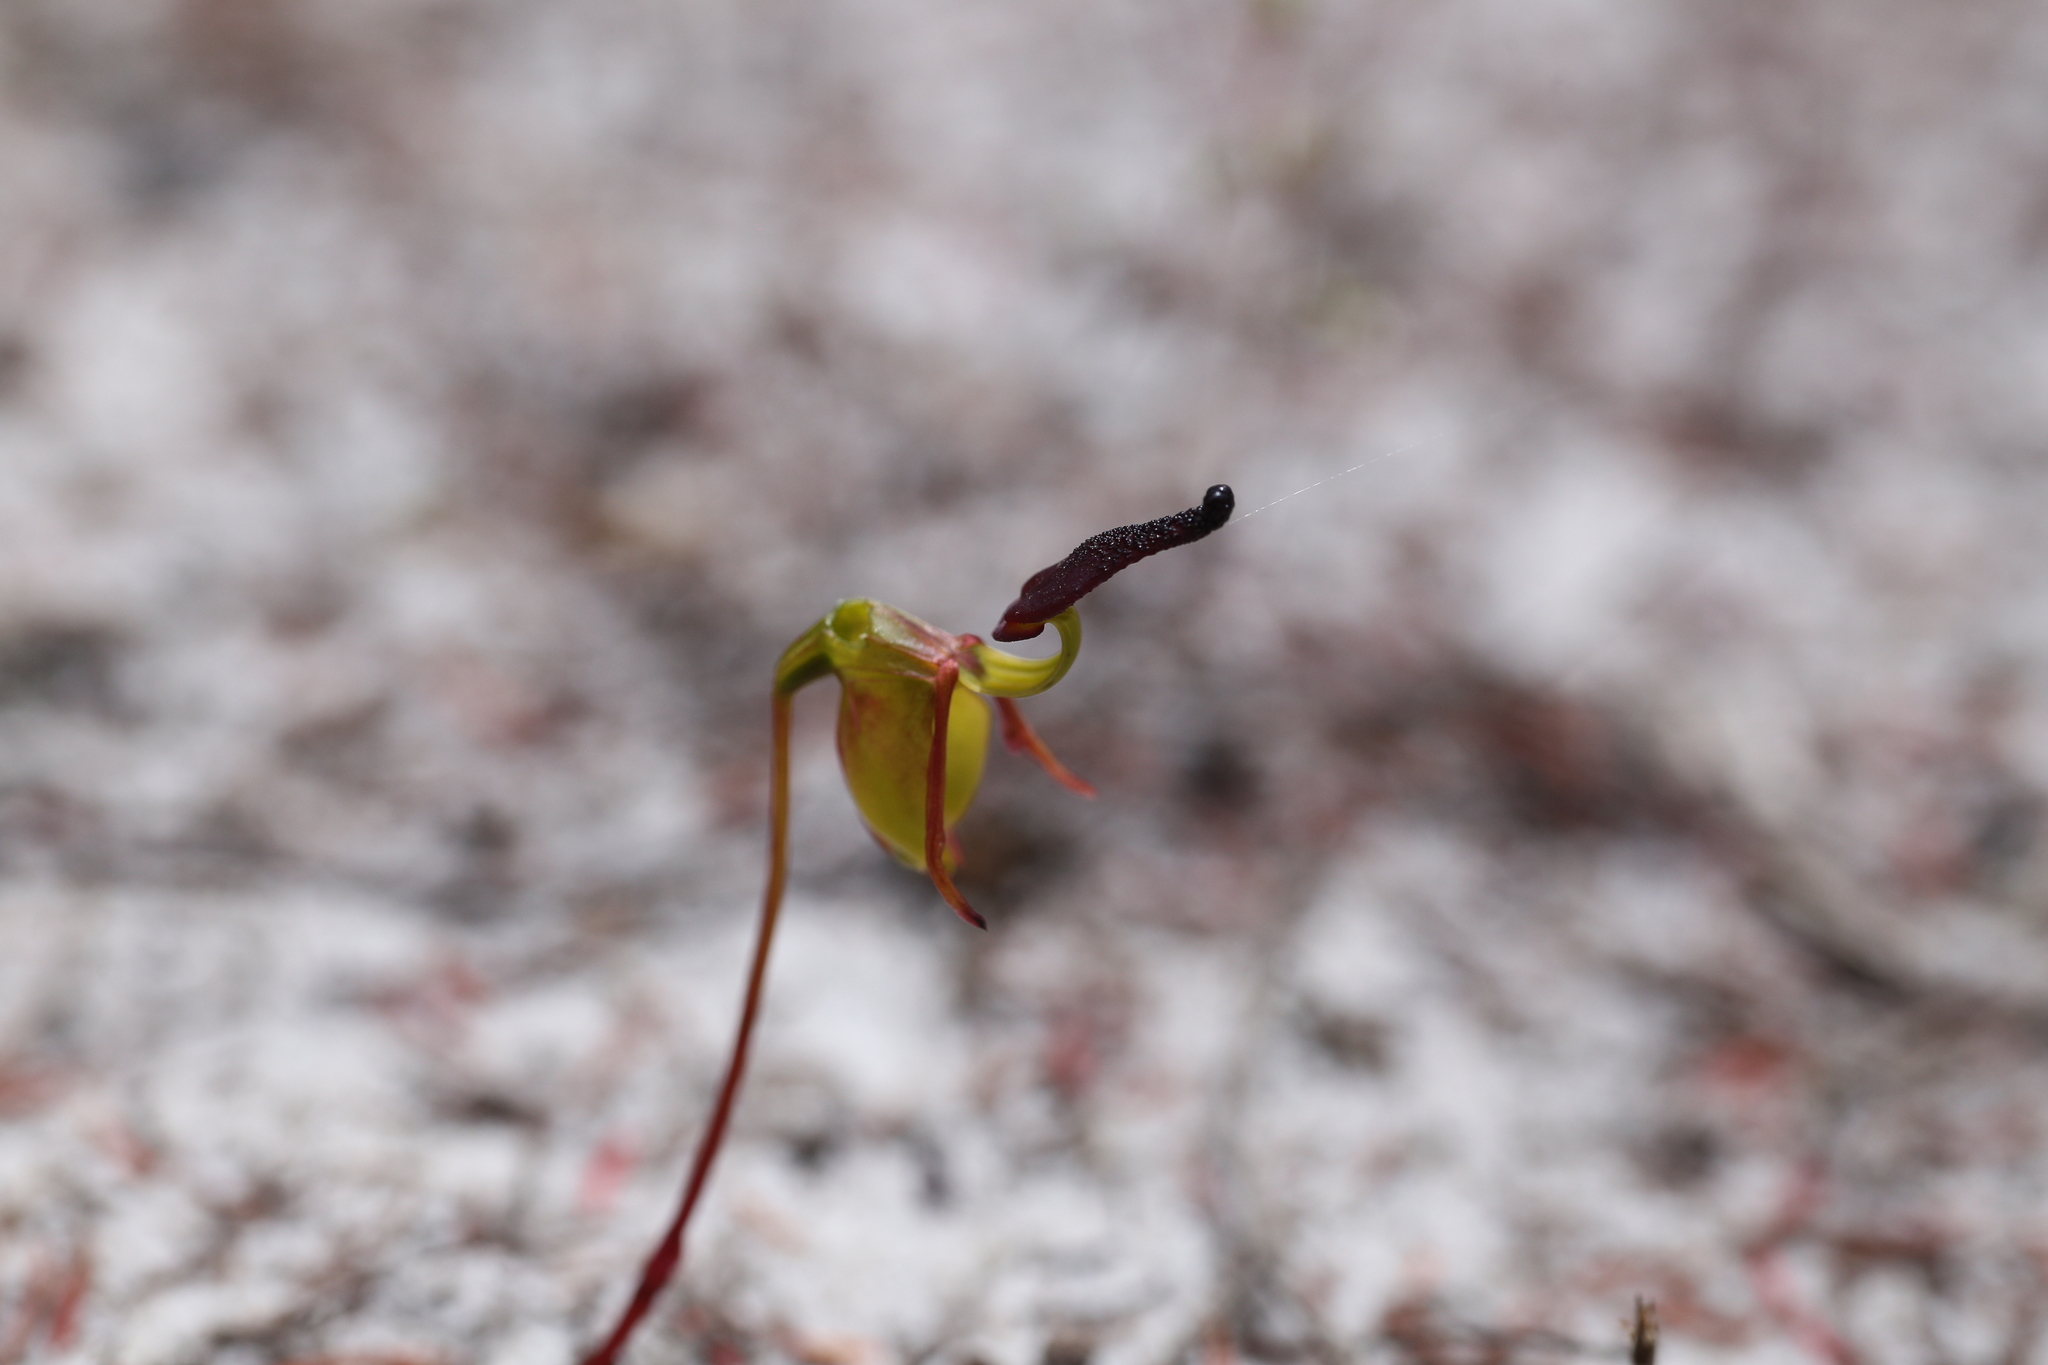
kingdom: Plantae
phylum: Tracheophyta
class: Liliopsida
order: Asparagales
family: Orchidaceae
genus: Caleana
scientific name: Caleana nigrita
